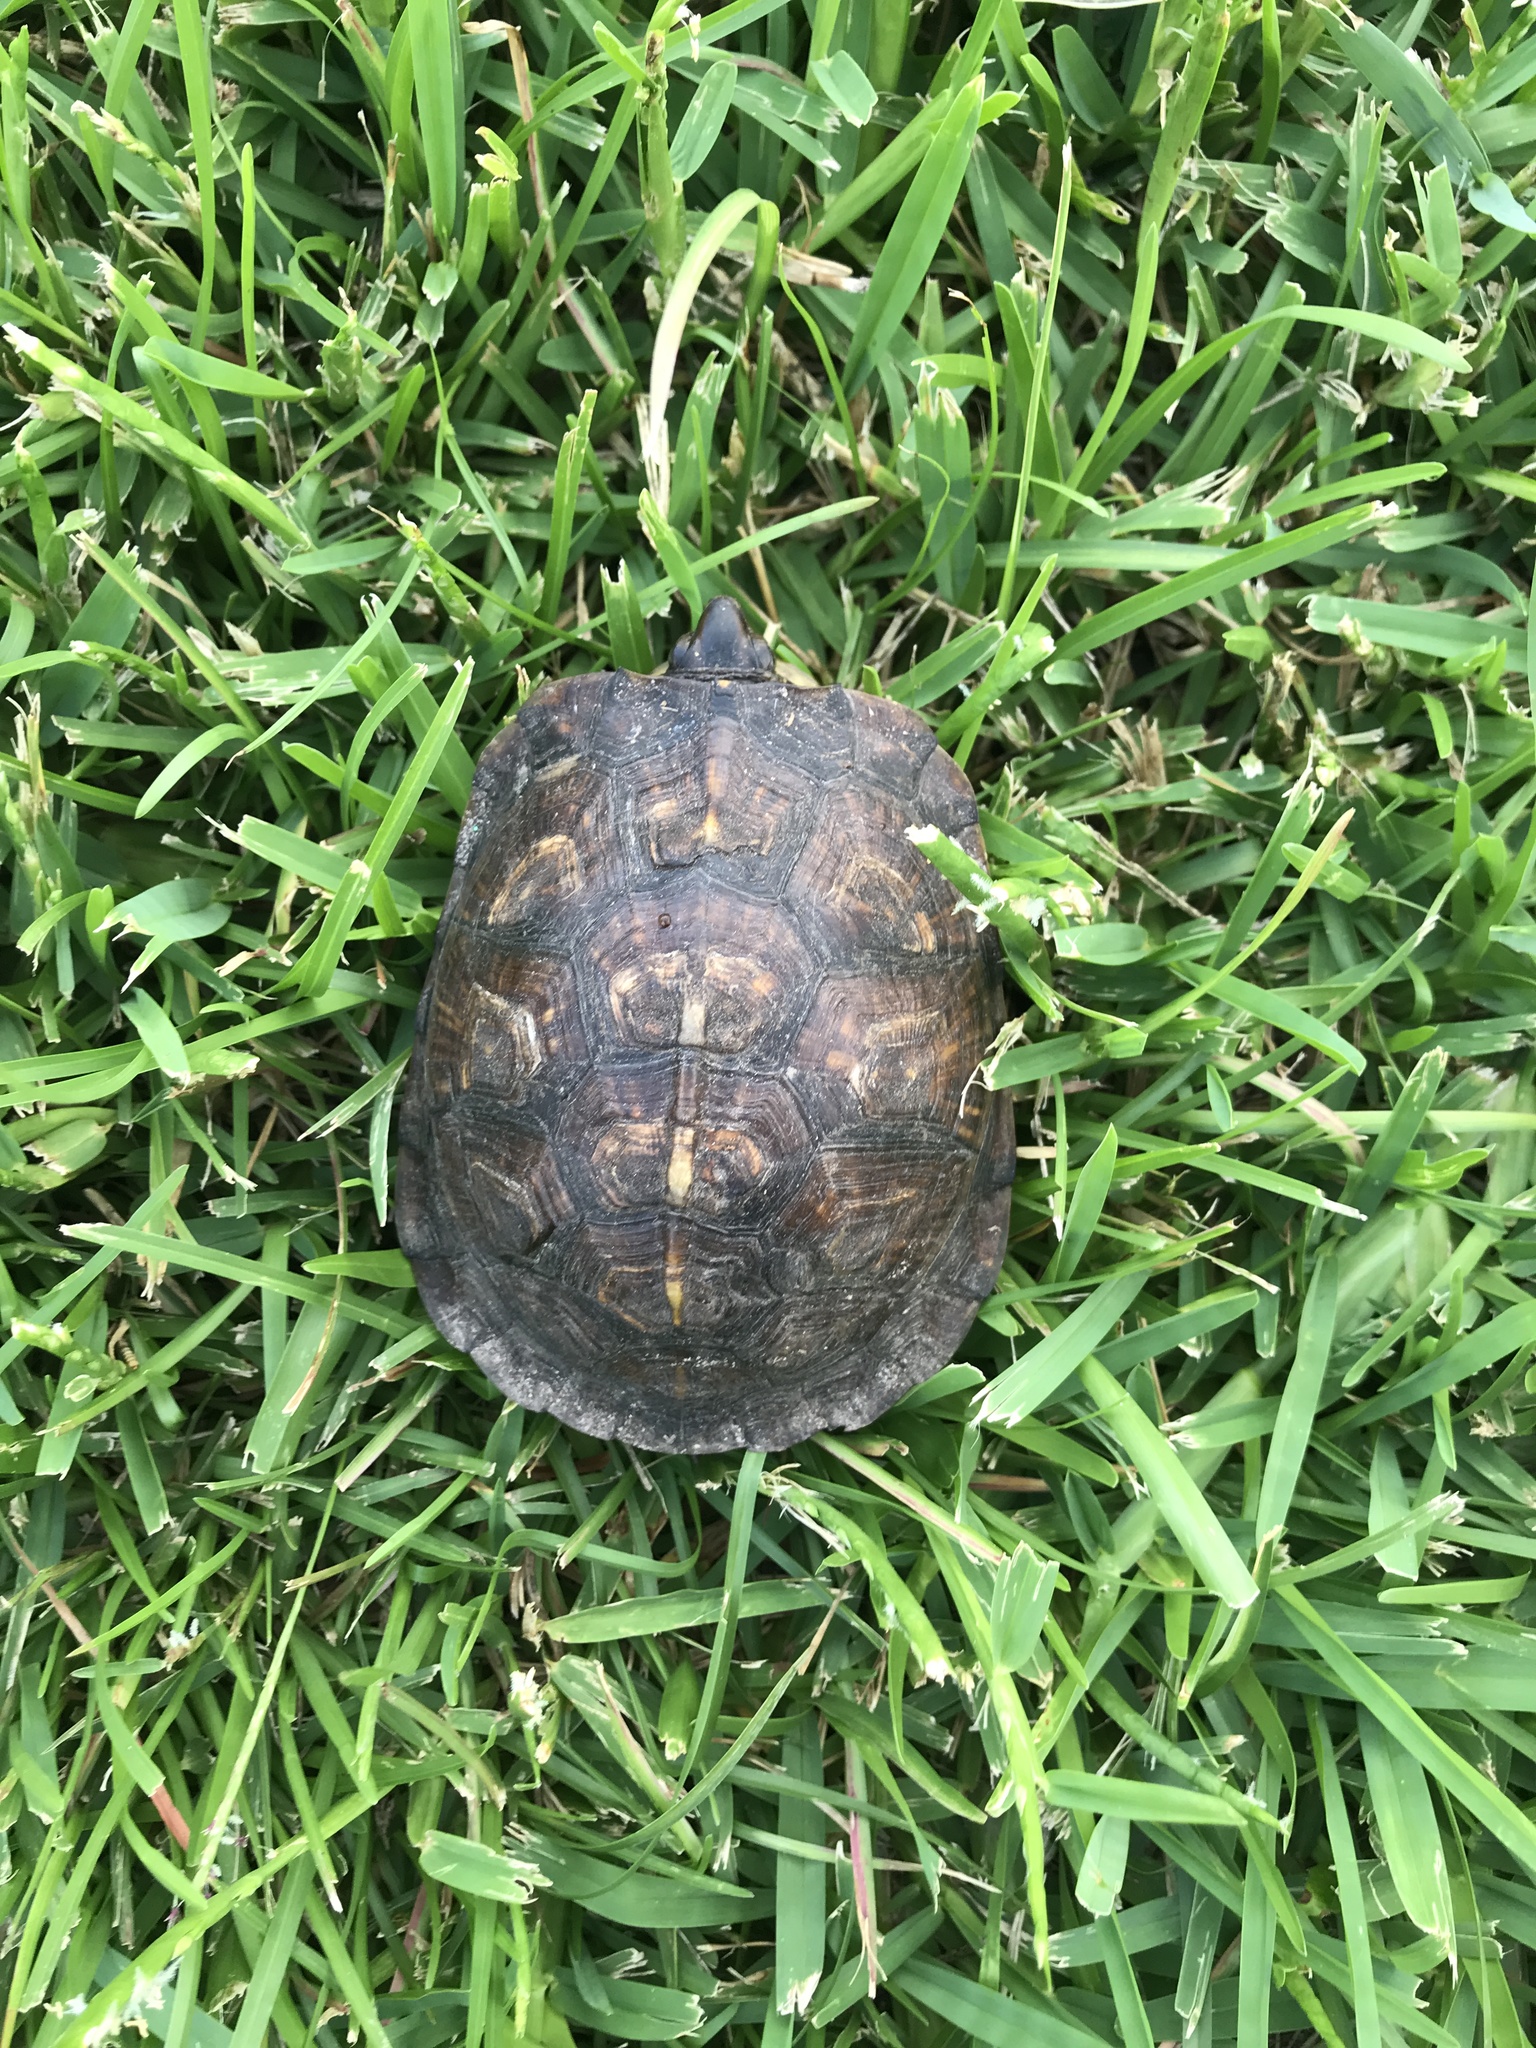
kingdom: Animalia
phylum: Chordata
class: Testudines
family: Emydidae
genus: Terrapene
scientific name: Terrapene carolina
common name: Common box turtle
